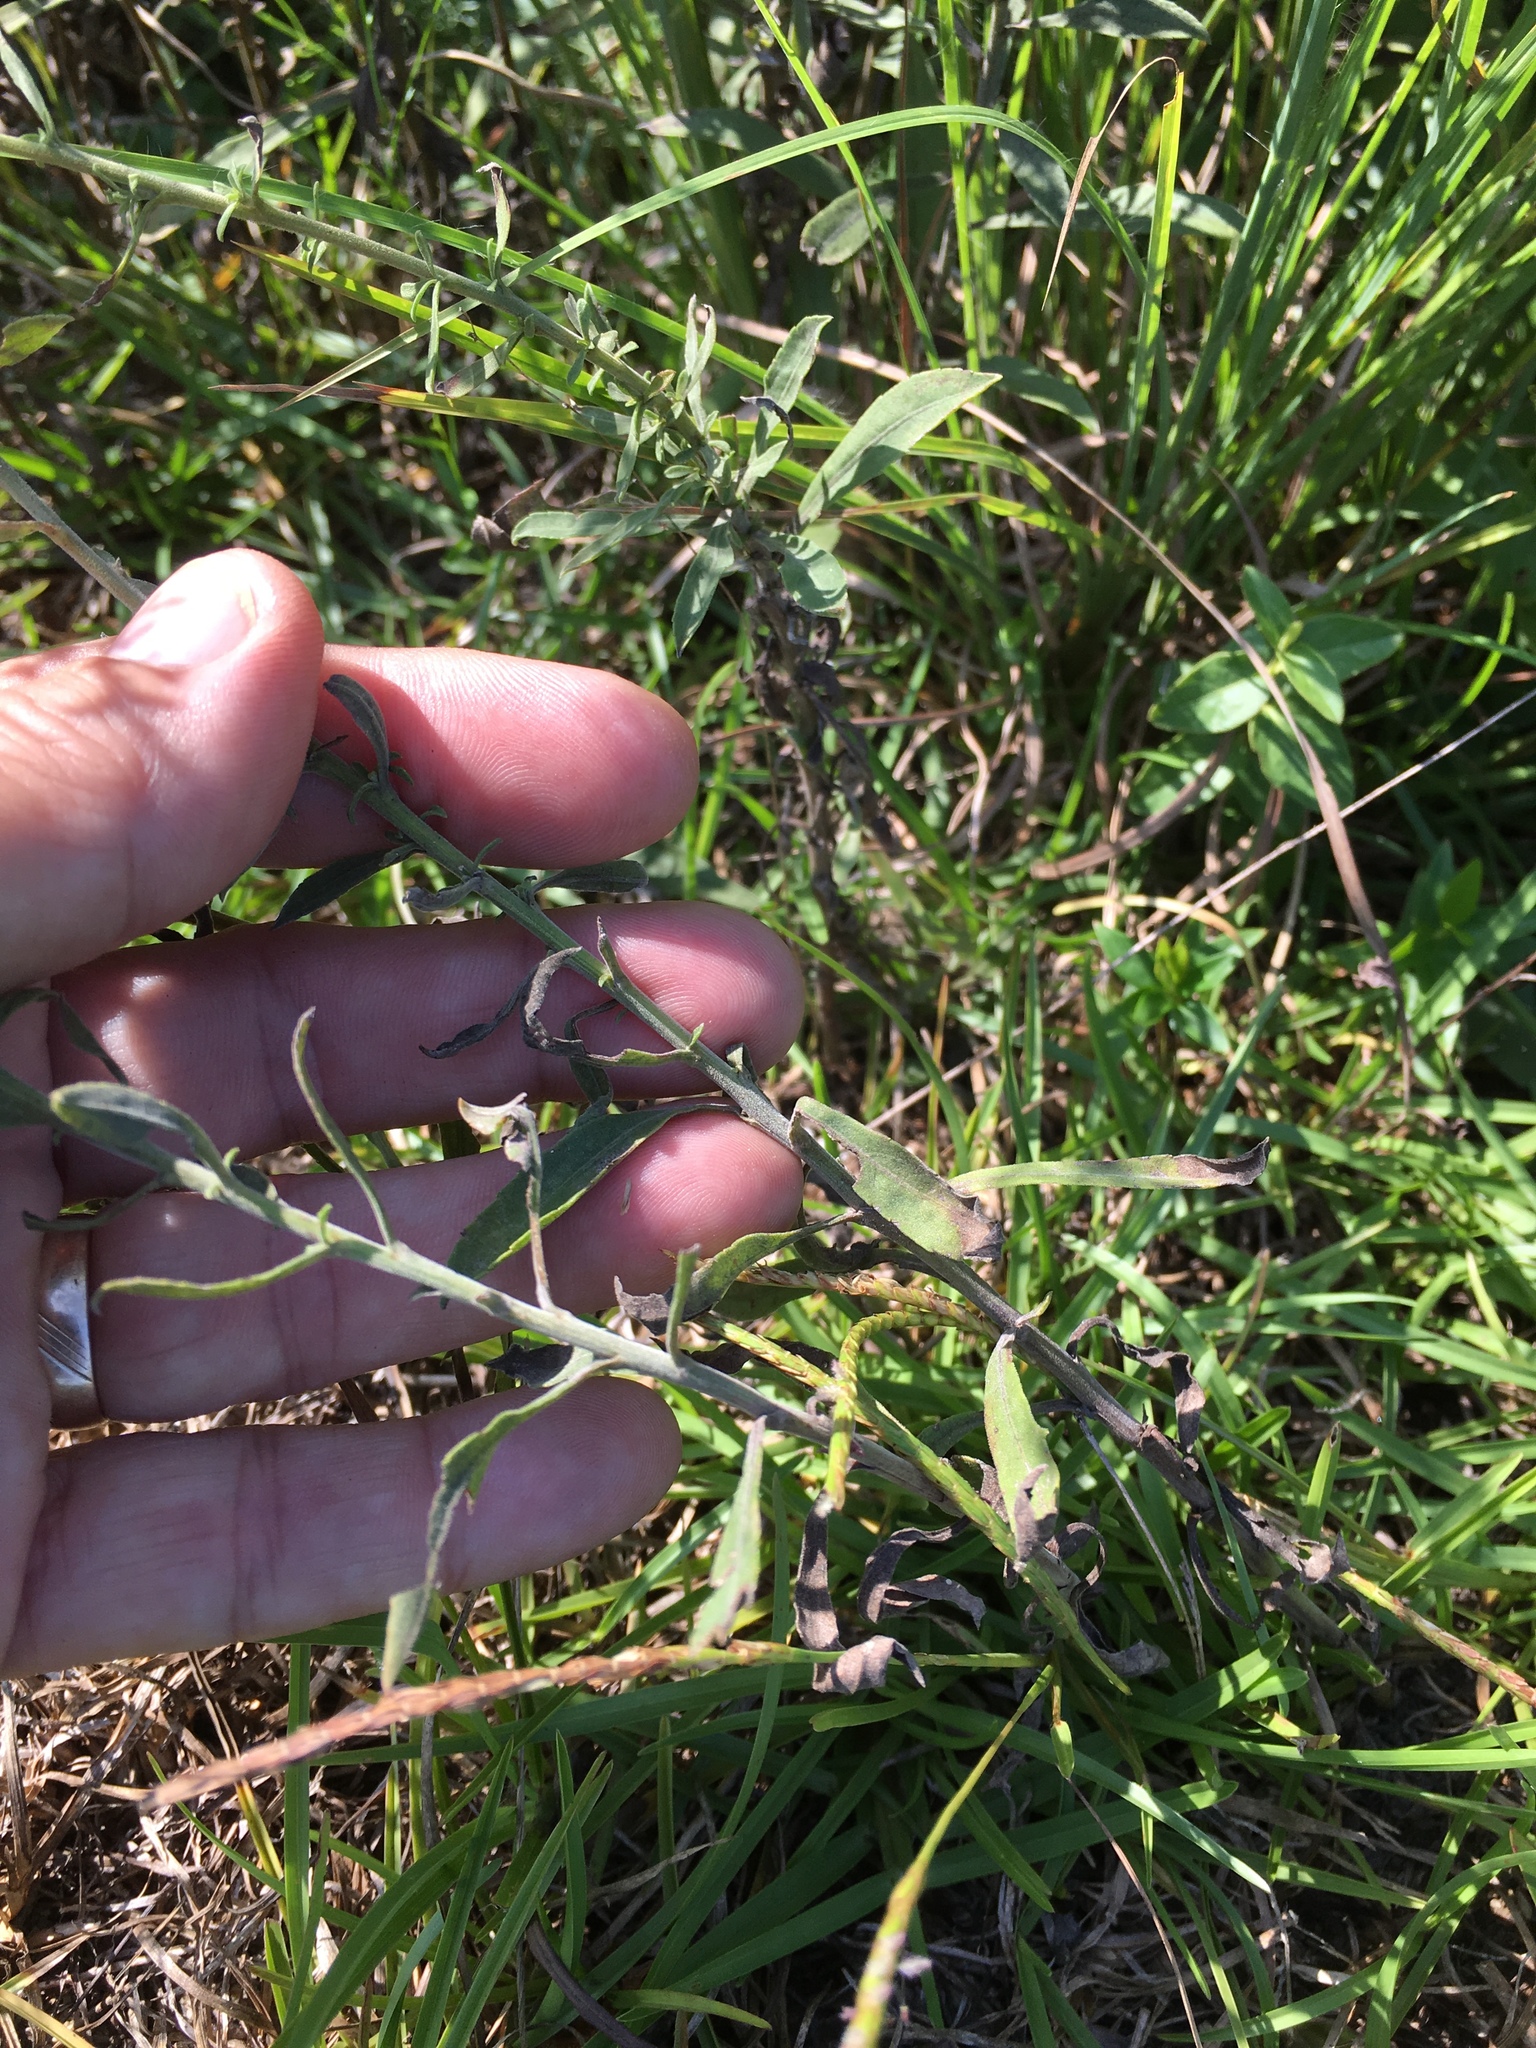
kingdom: Plantae
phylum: Tracheophyta
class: Magnoliopsida
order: Asterales
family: Asteraceae
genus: Solidago
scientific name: Solidago nemoralis
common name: Grey goldenrod
